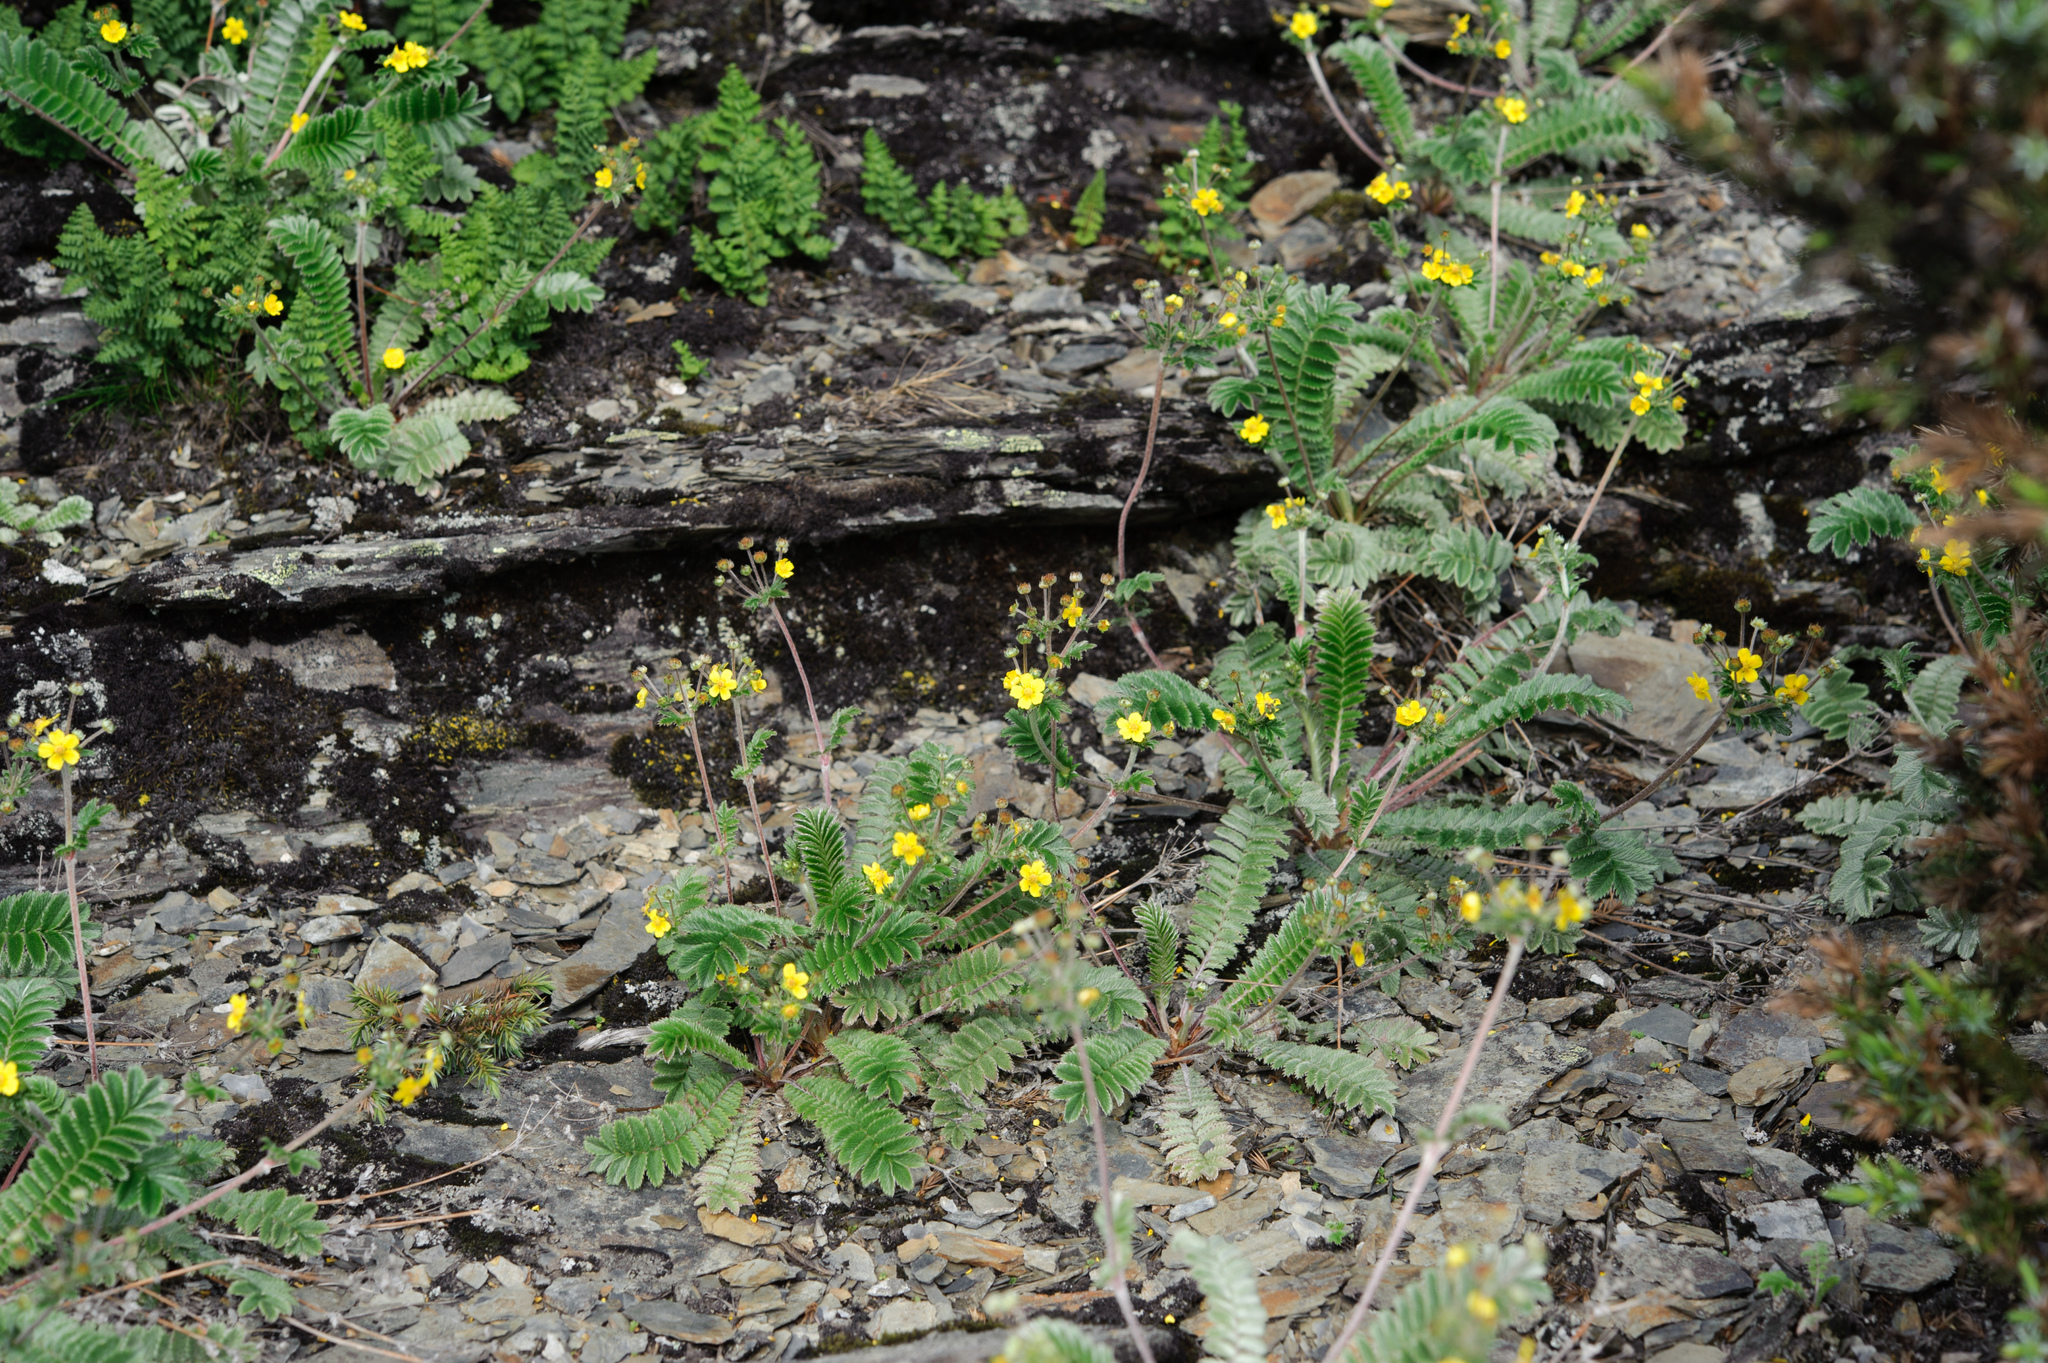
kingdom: Plantae
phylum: Tracheophyta
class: Magnoliopsida
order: Rosales
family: Rosaceae
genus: Argentina
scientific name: Argentina leuconota
